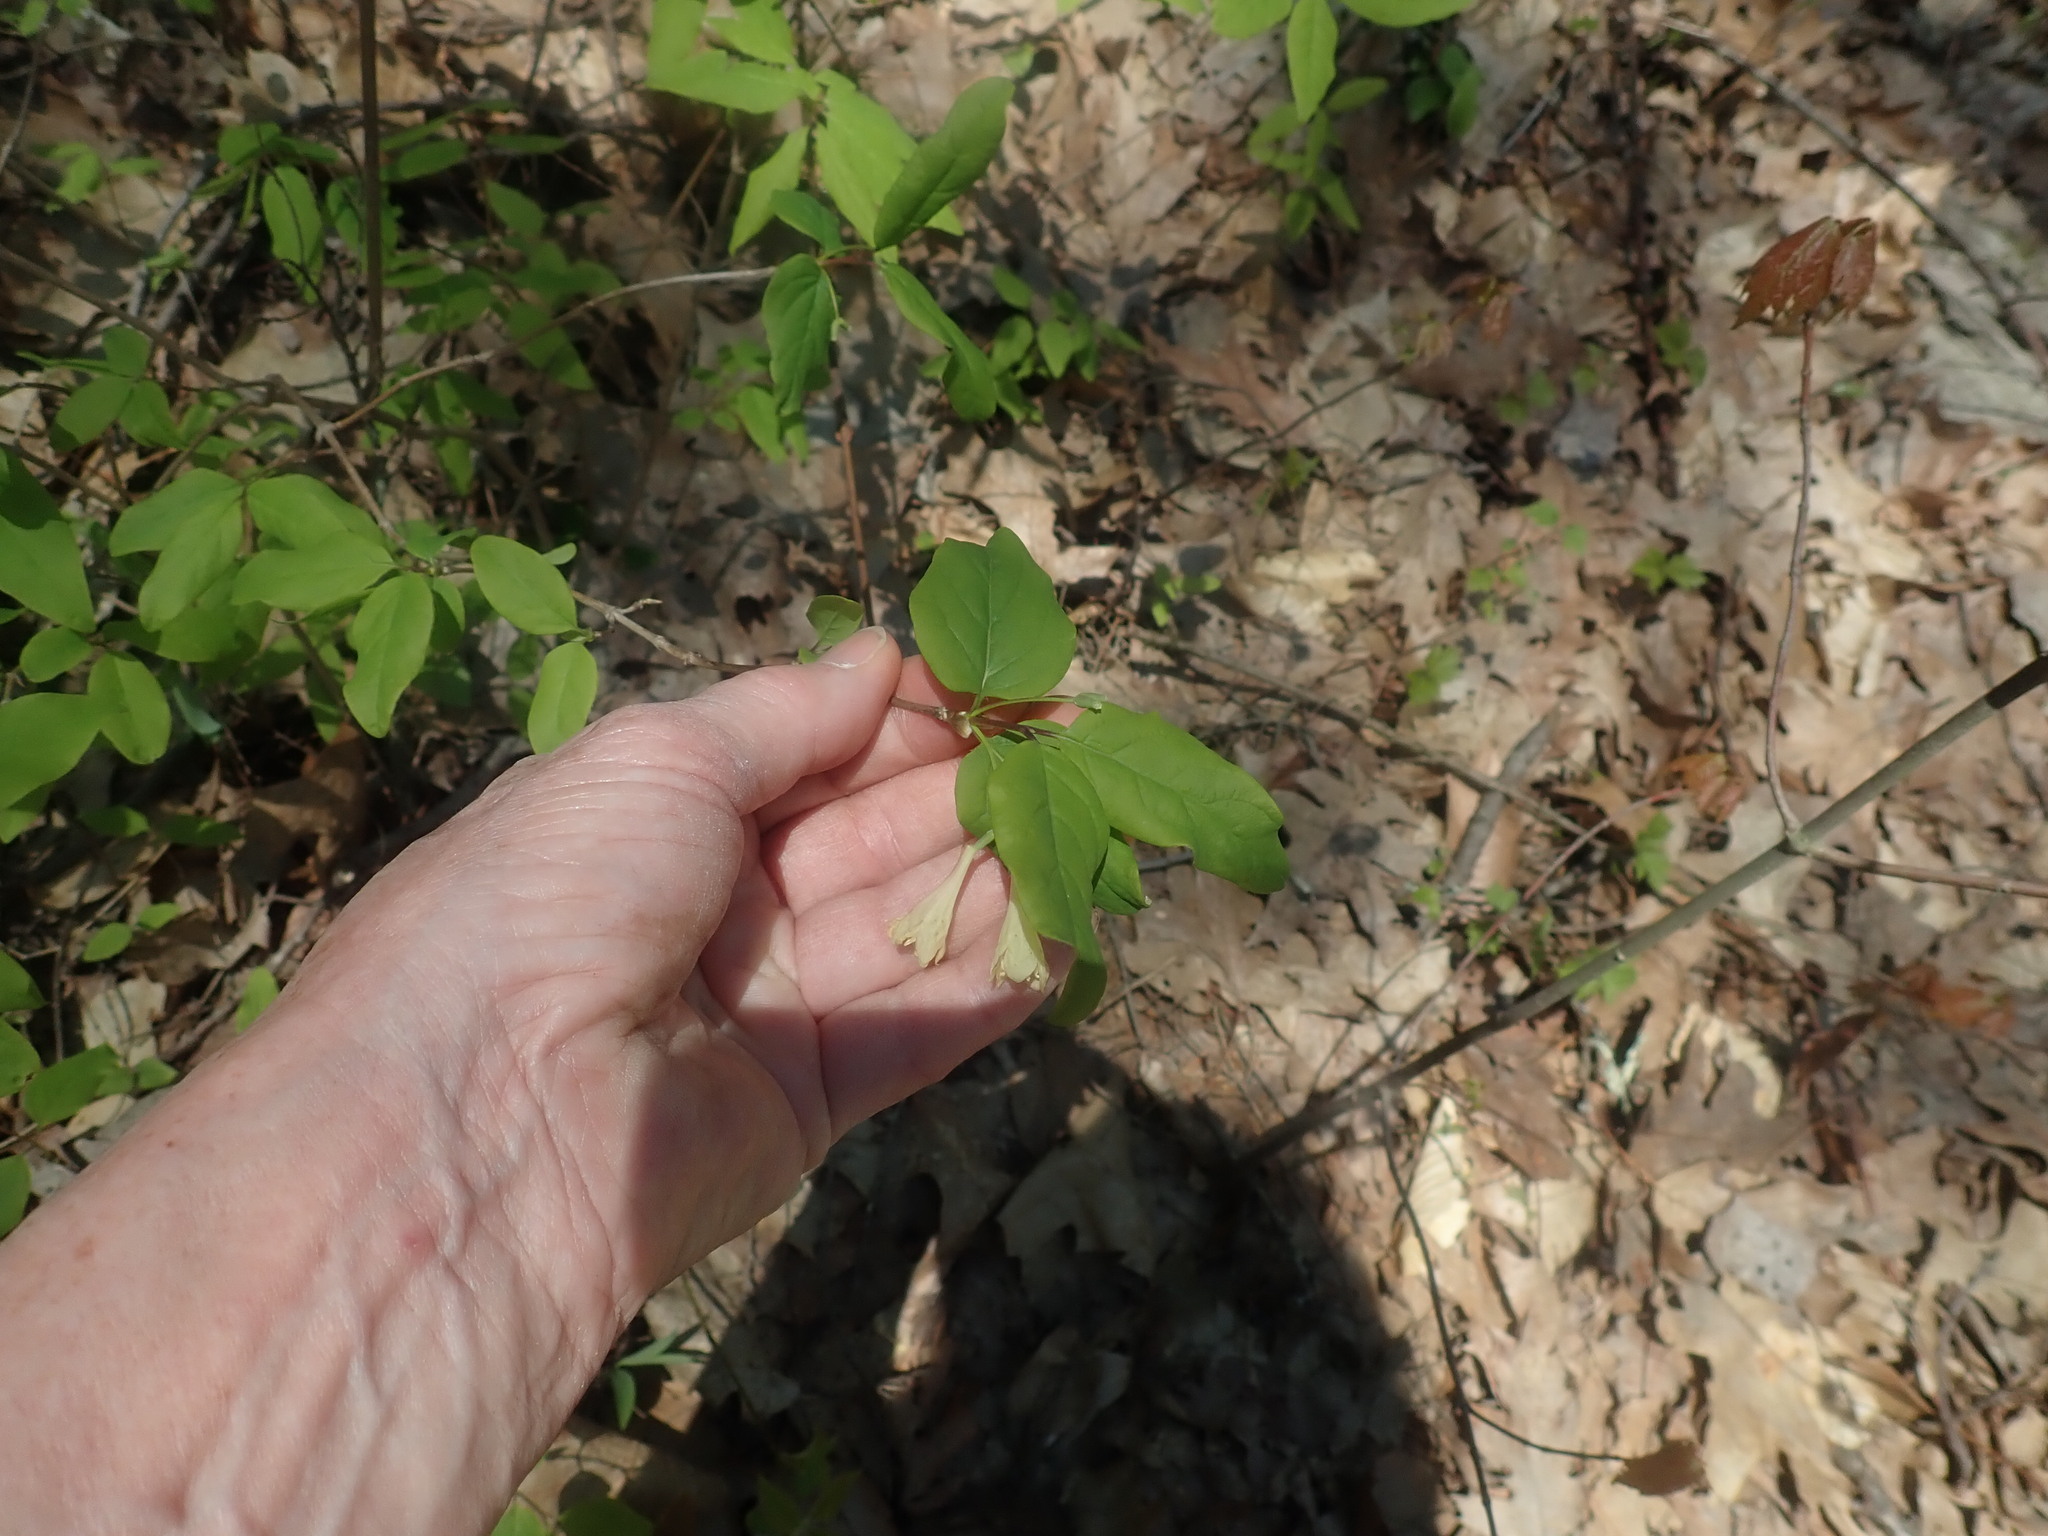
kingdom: Plantae
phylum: Tracheophyta
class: Magnoliopsida
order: Dipsacales
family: Caprifoliaceae
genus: Lonicera
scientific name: Lonicera canadensis
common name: American fly-honeysuckle
